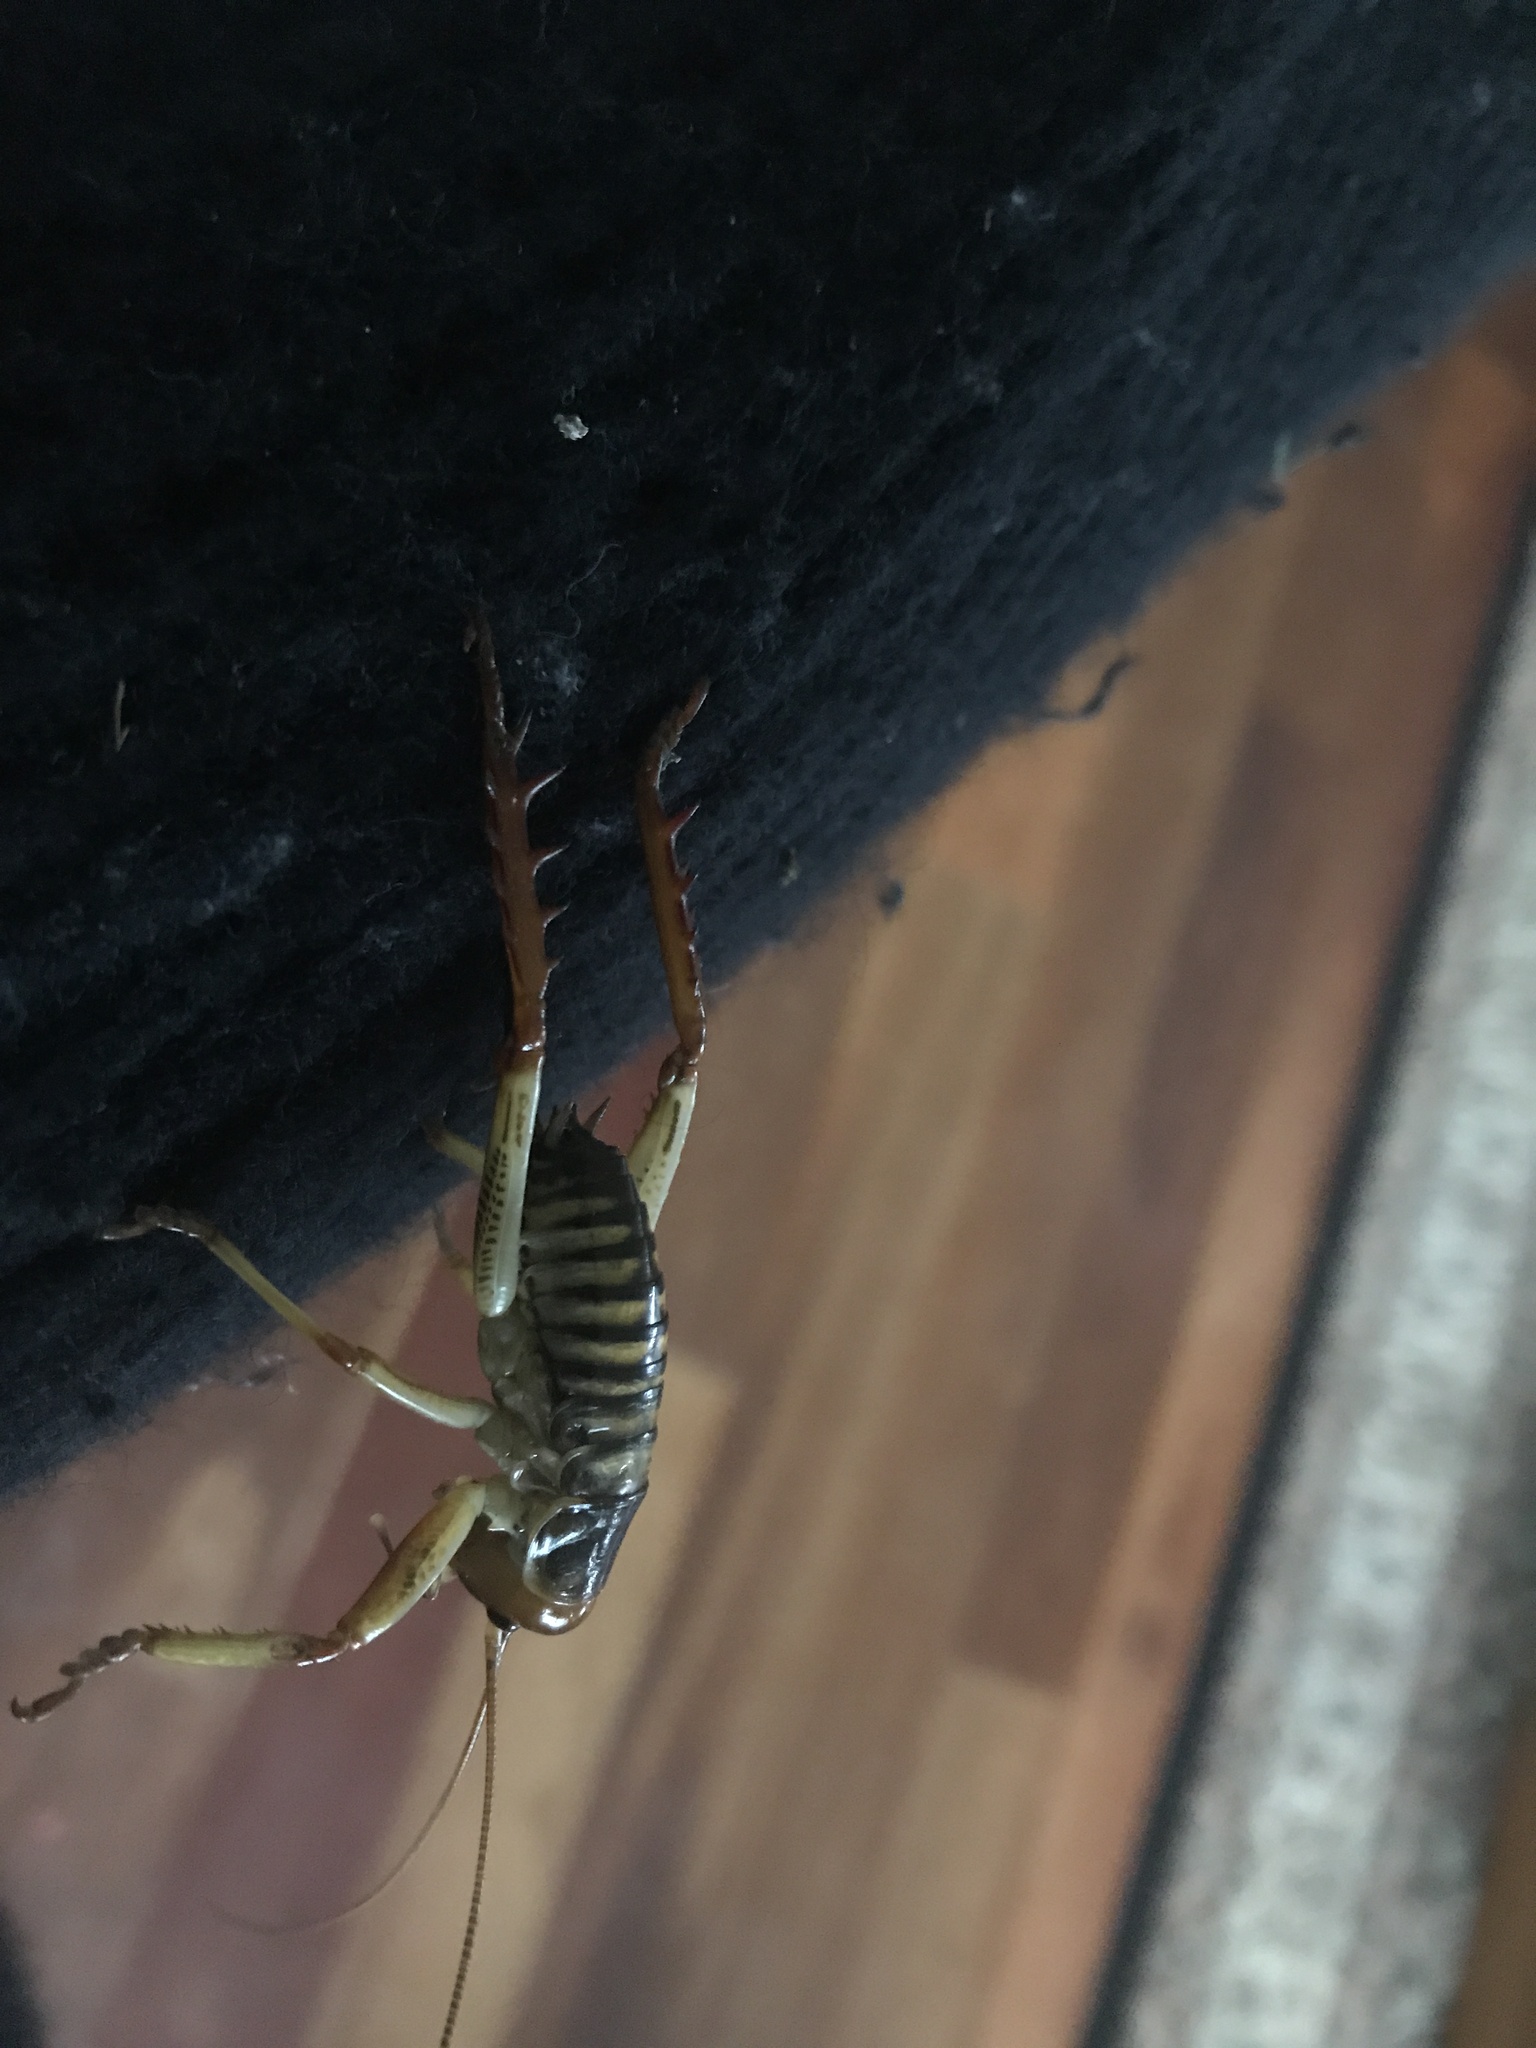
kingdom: Animalia
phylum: Arthropoda
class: Insecta
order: Orthoptera
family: Anostostomatidae
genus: Hemideina
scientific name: Hemideina crassidens
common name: Wellington tree weta
